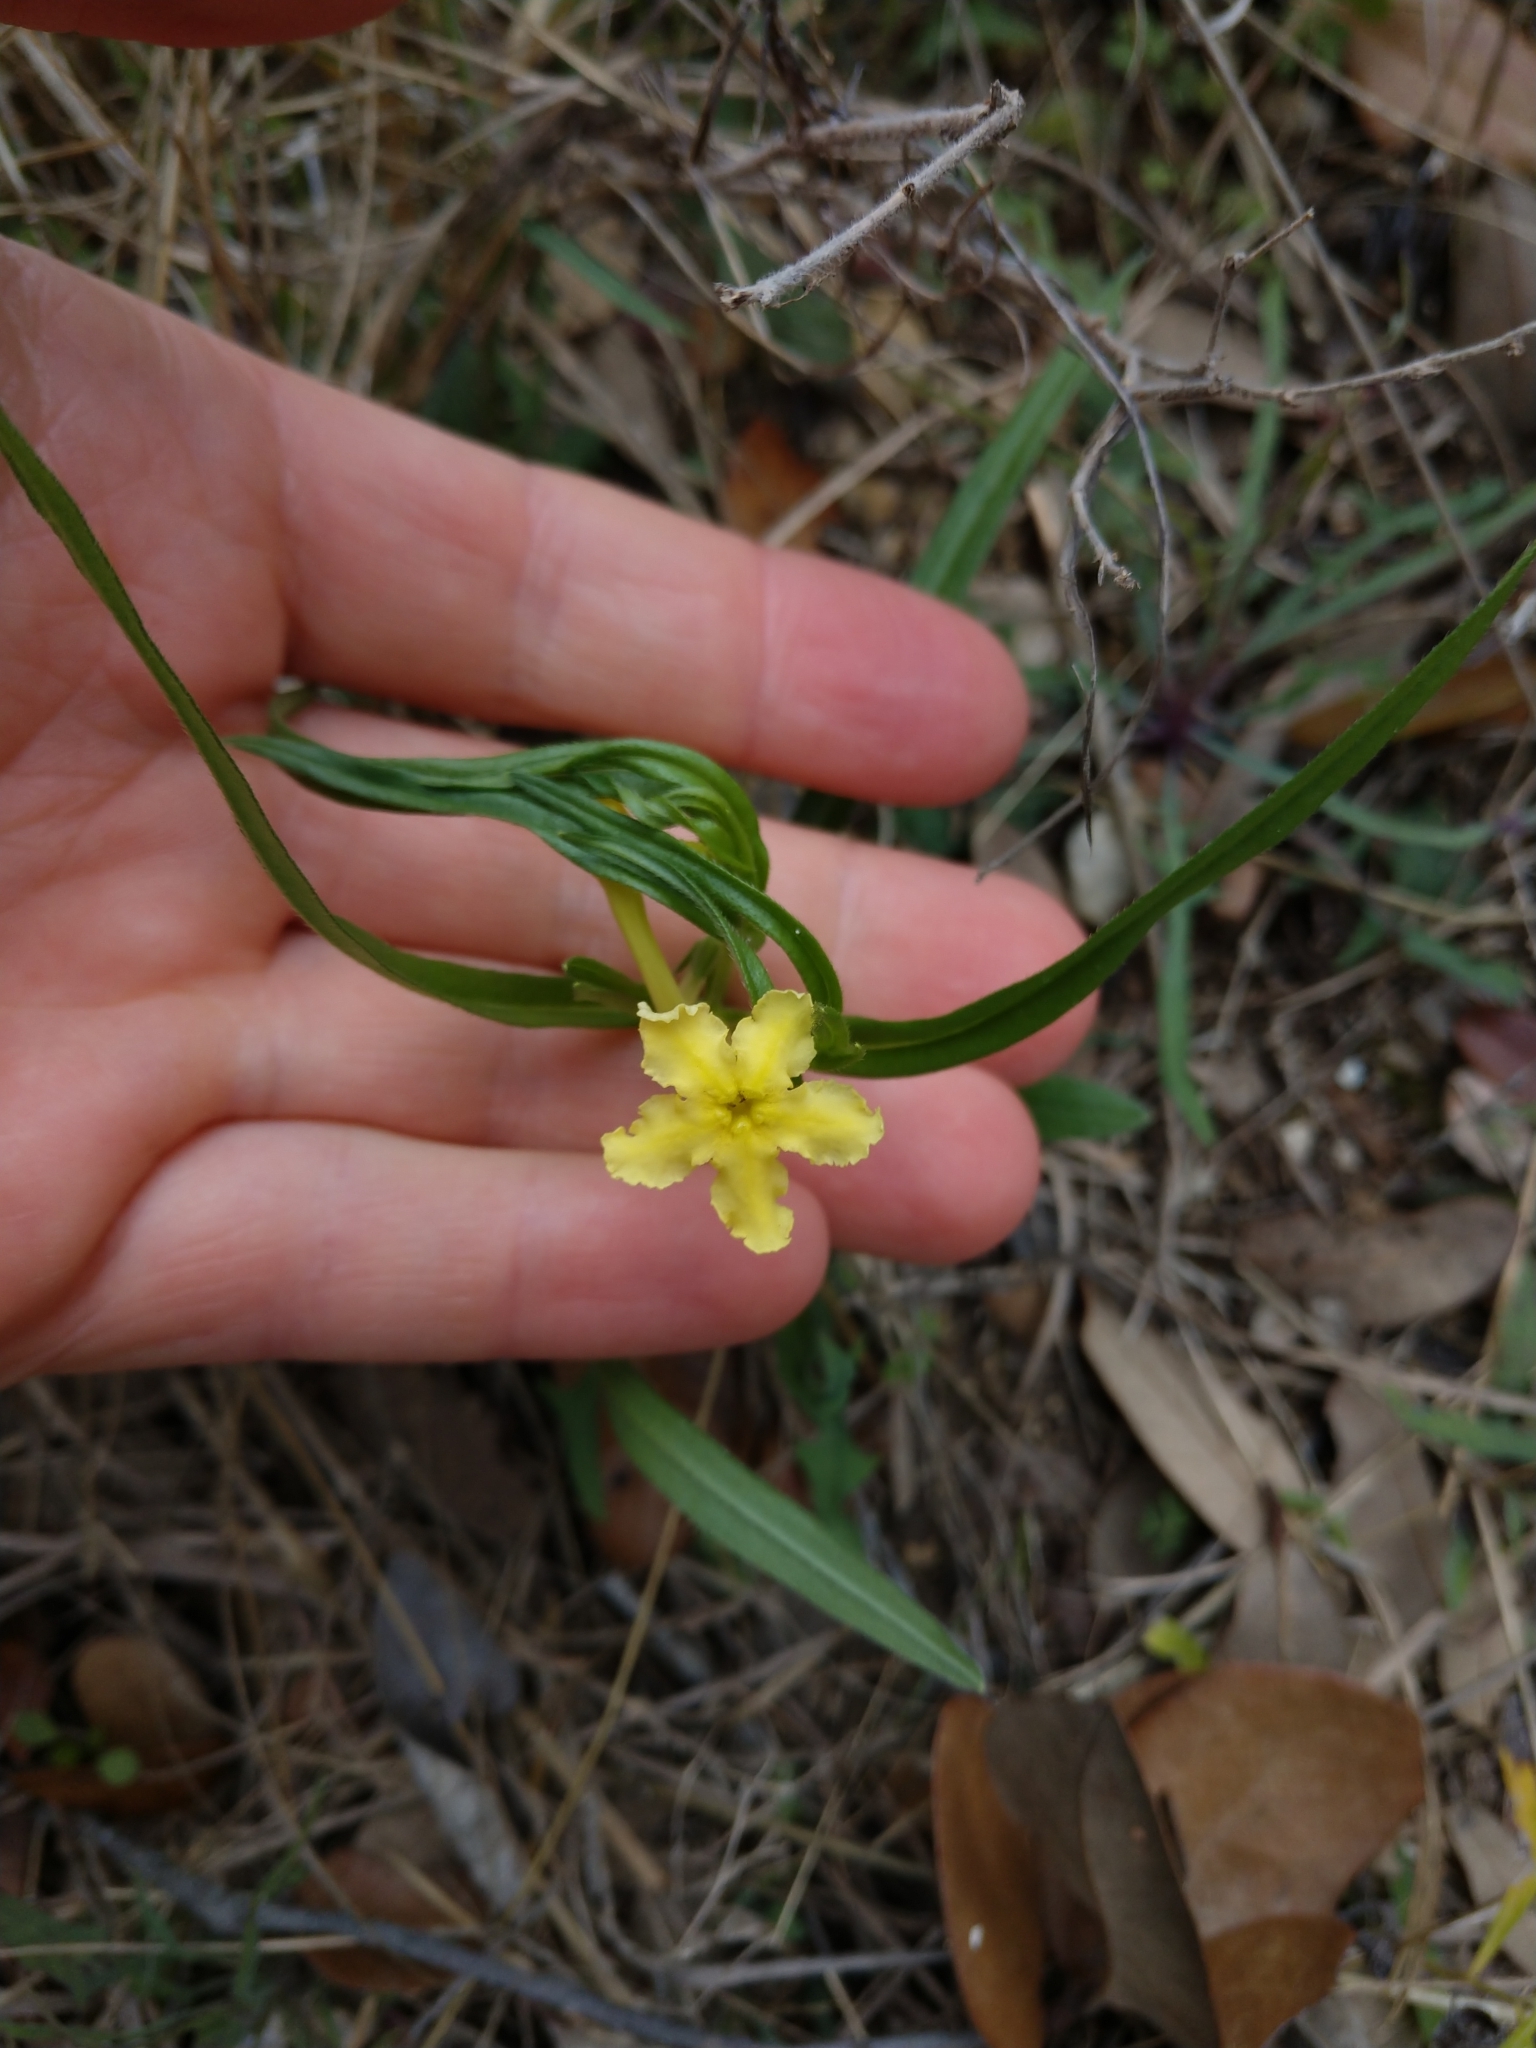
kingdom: Plantae
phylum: Tracheophyta
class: Magnoliopsida
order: Boraginales
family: Boraginaceae
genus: Lithospermum
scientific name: Lithospermum incisum
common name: Fringed gromwell
